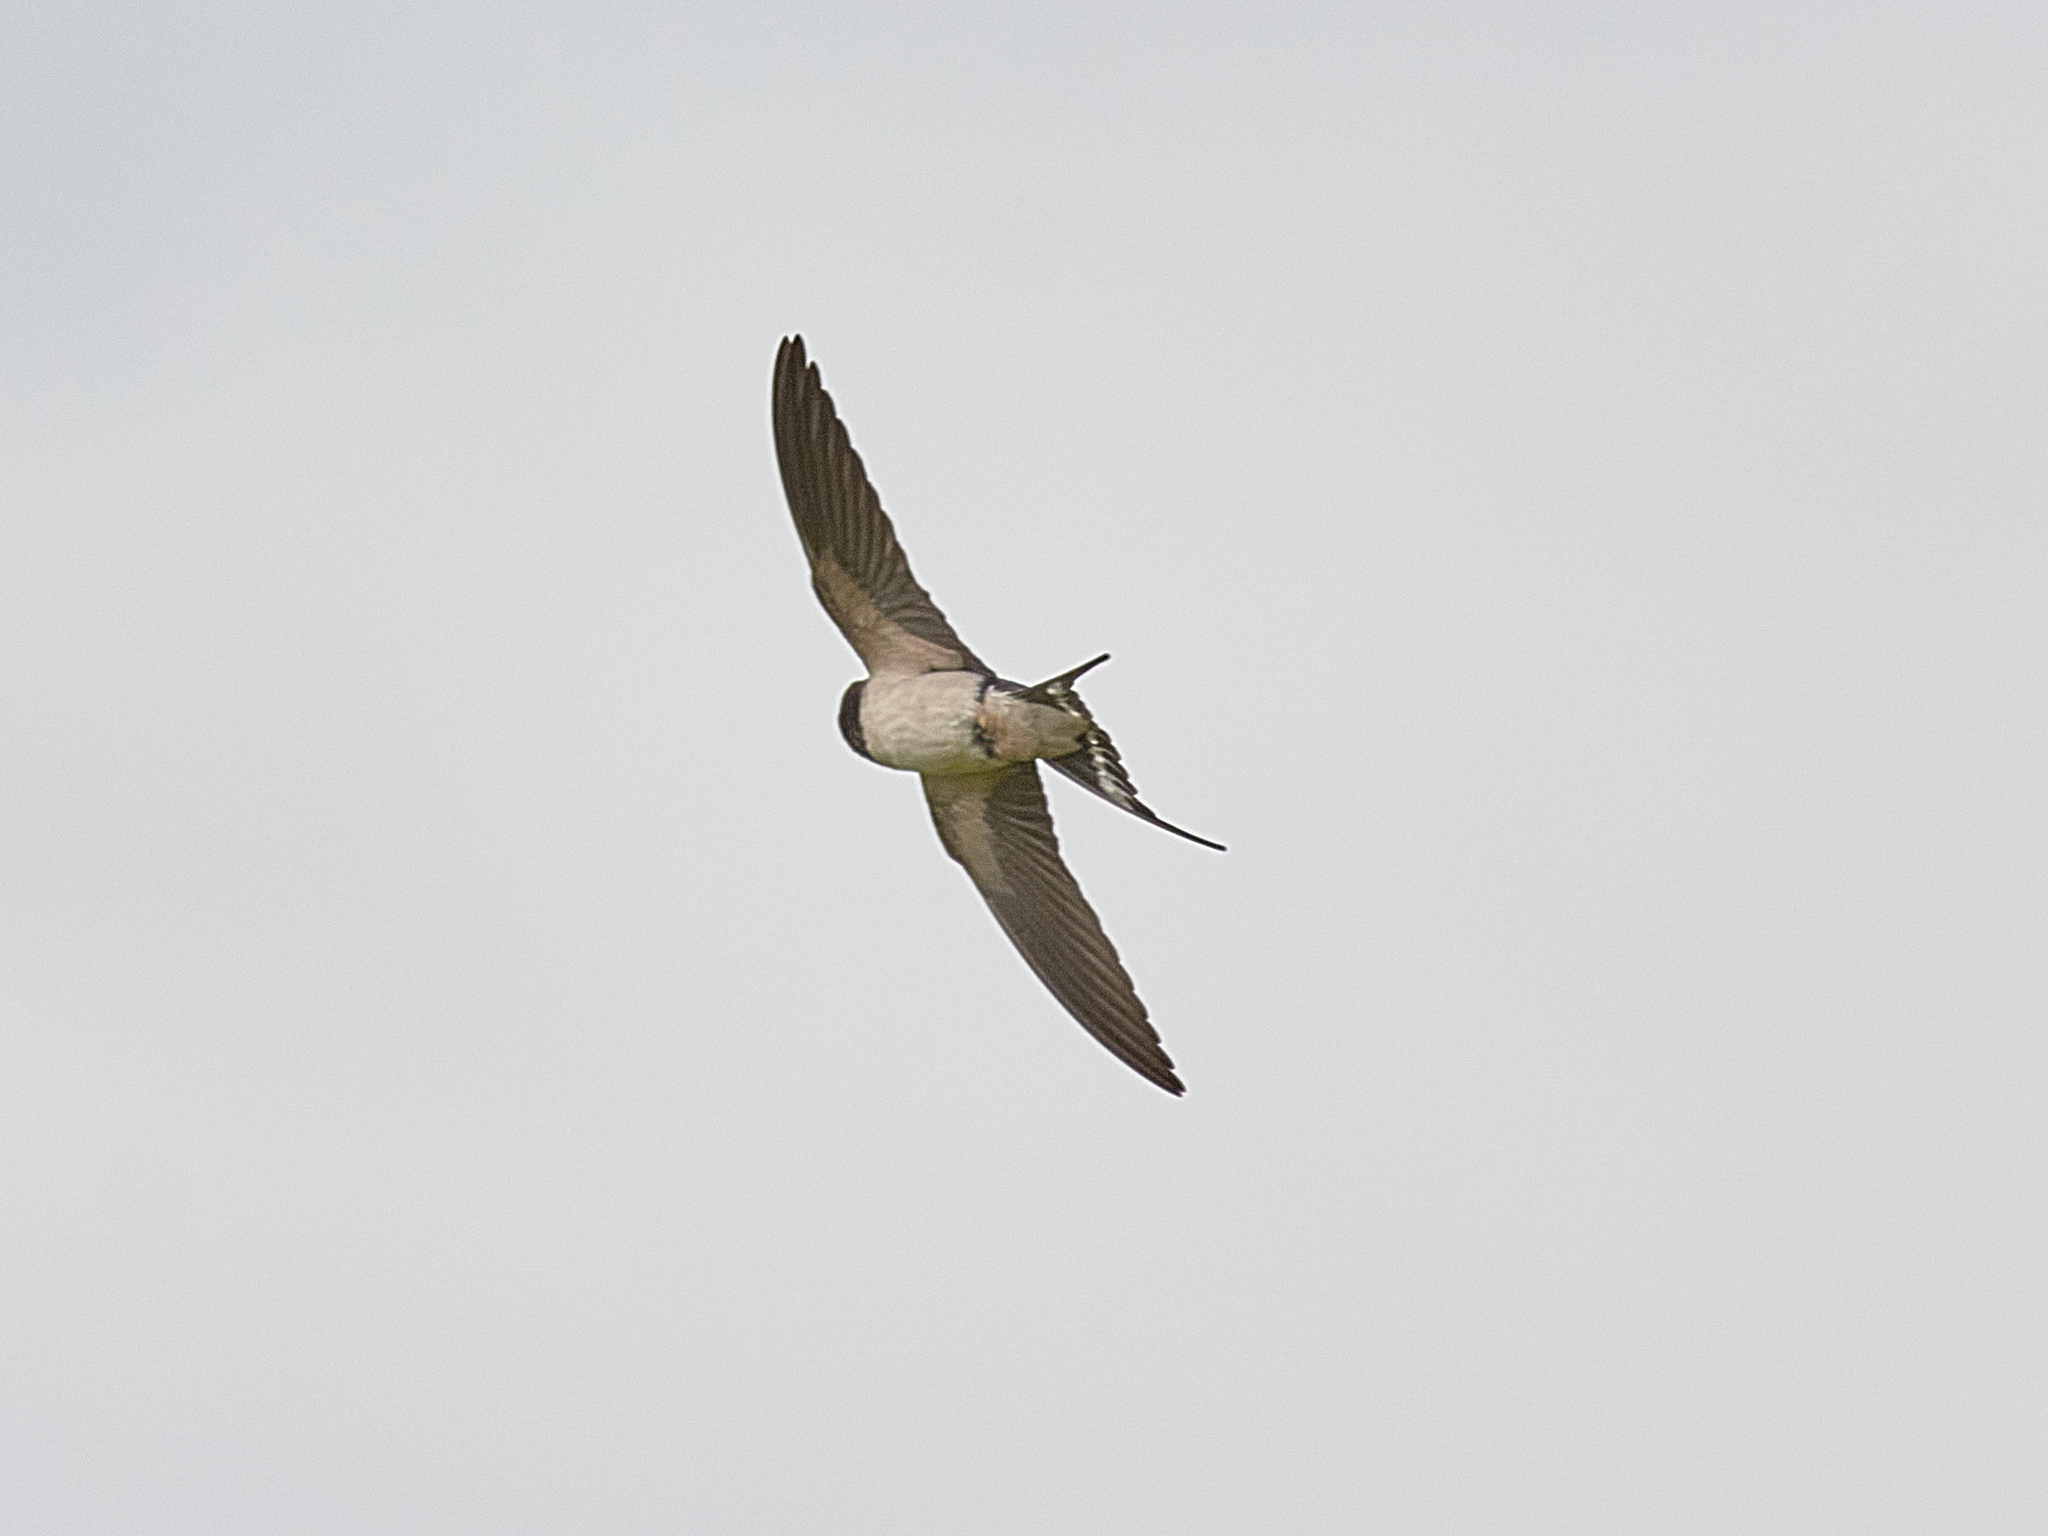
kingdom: Animalia
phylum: Chordata
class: Aves
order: Passeriformes
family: Hirundinidae
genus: Hirundo
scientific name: Hirundo rustica
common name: Barn swallow
